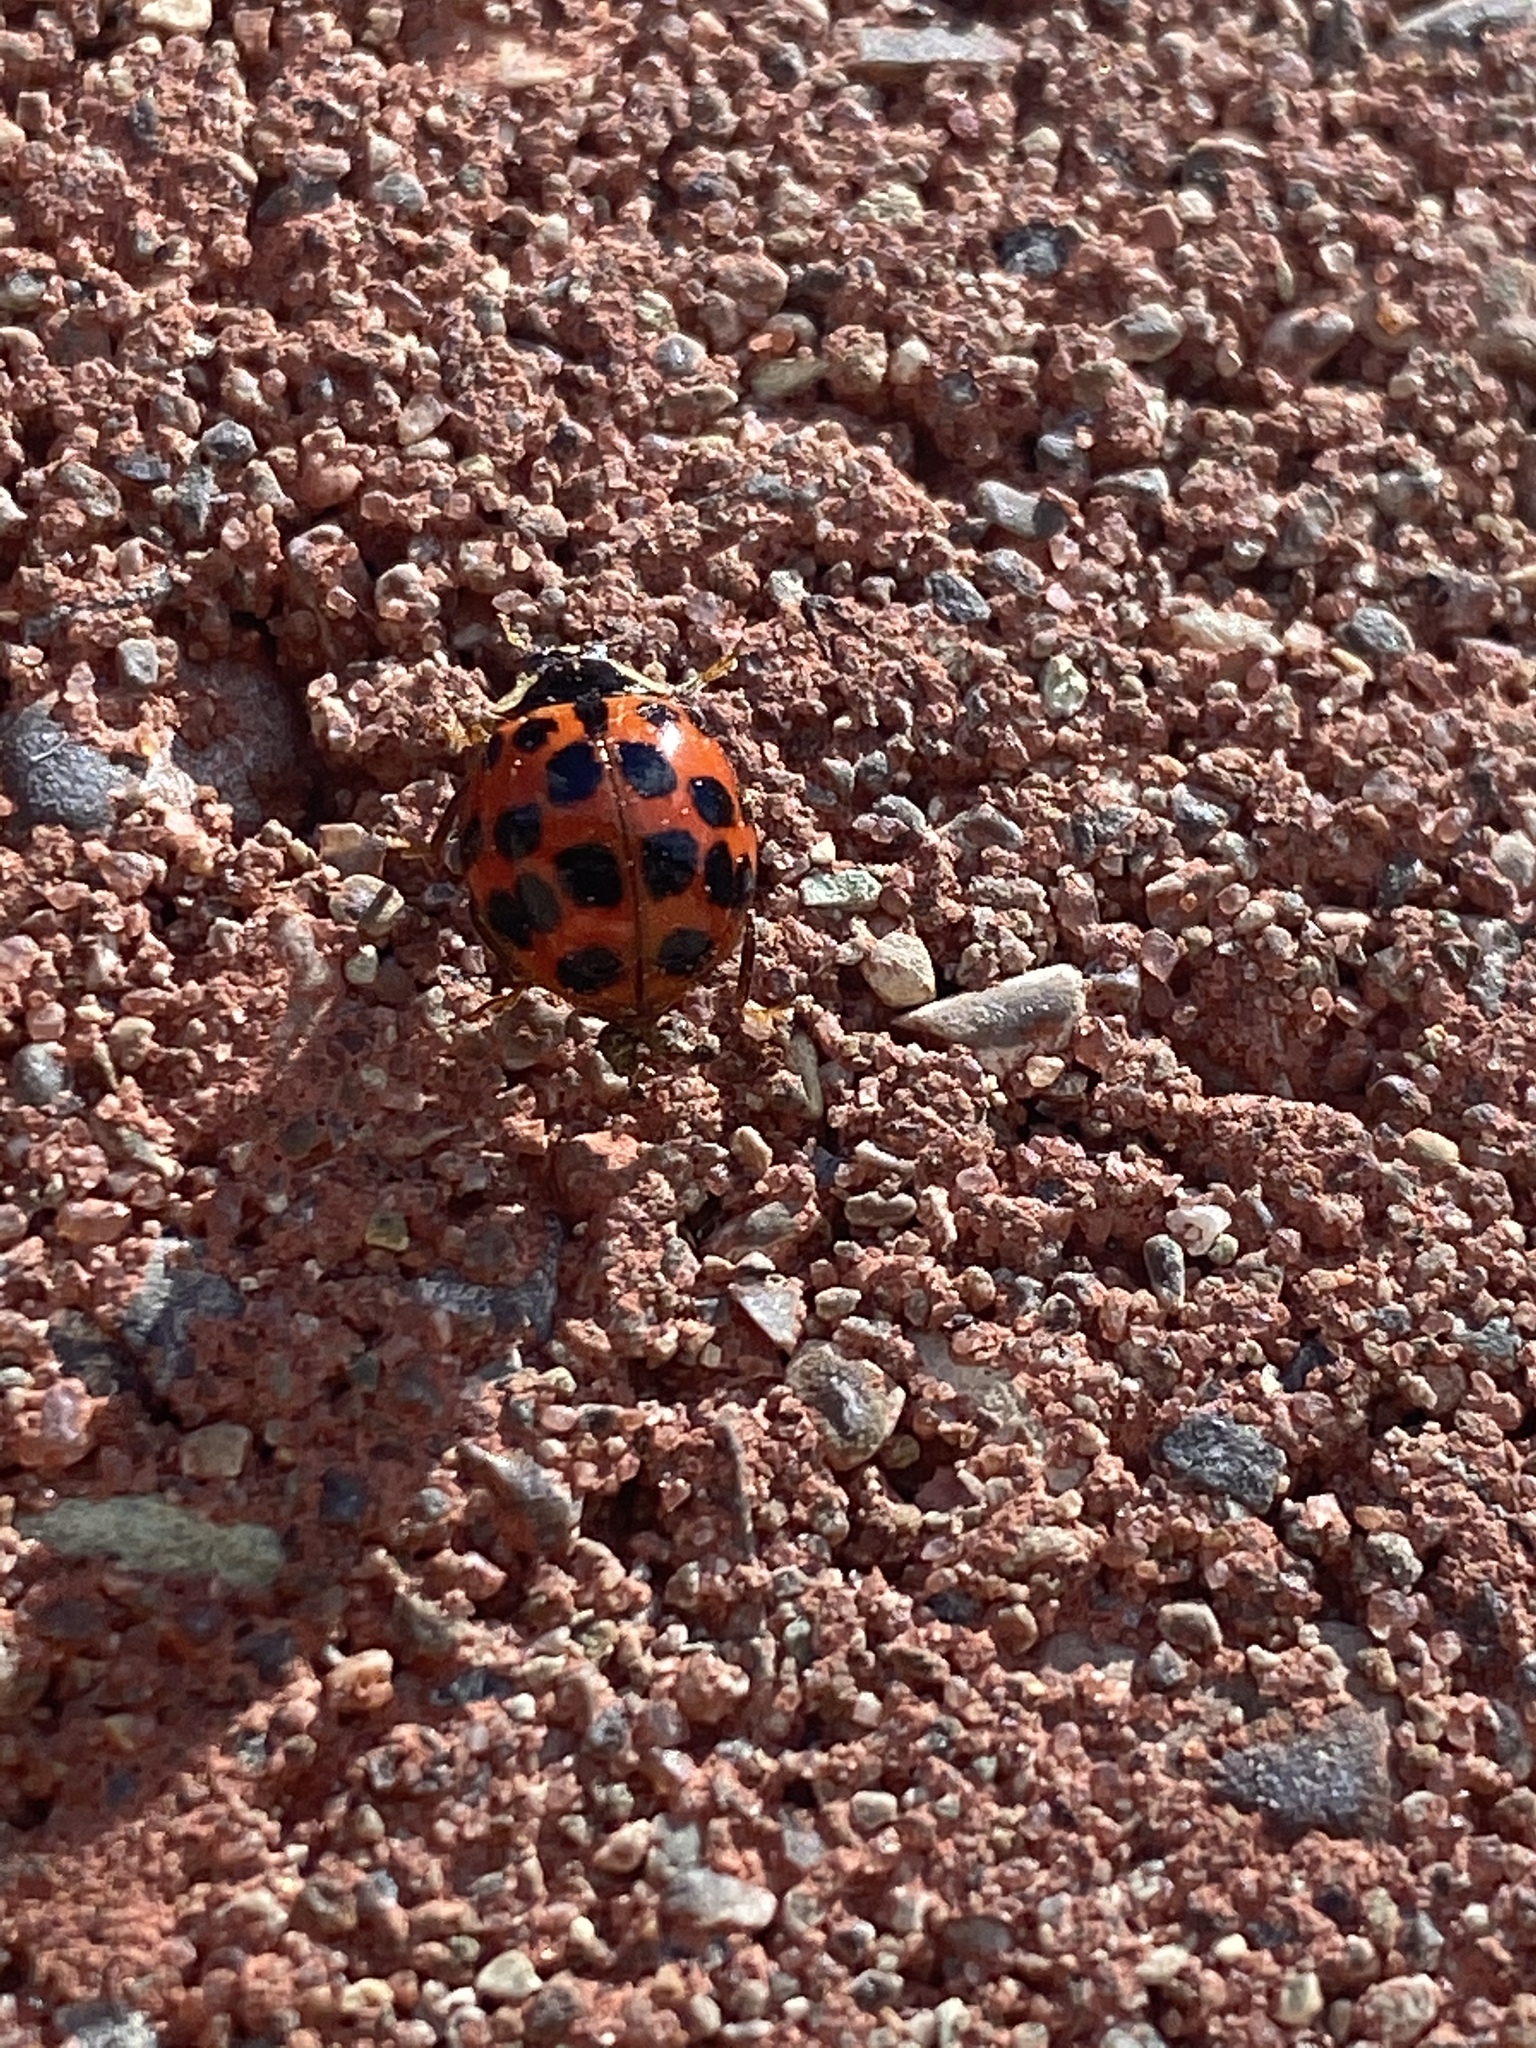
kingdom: Animalia
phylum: Arthropoda
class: Insecta
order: Coleoptera
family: Coccinellidae
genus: Harmonia
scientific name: Harmonia axyridis
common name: Harlequin ladybird
